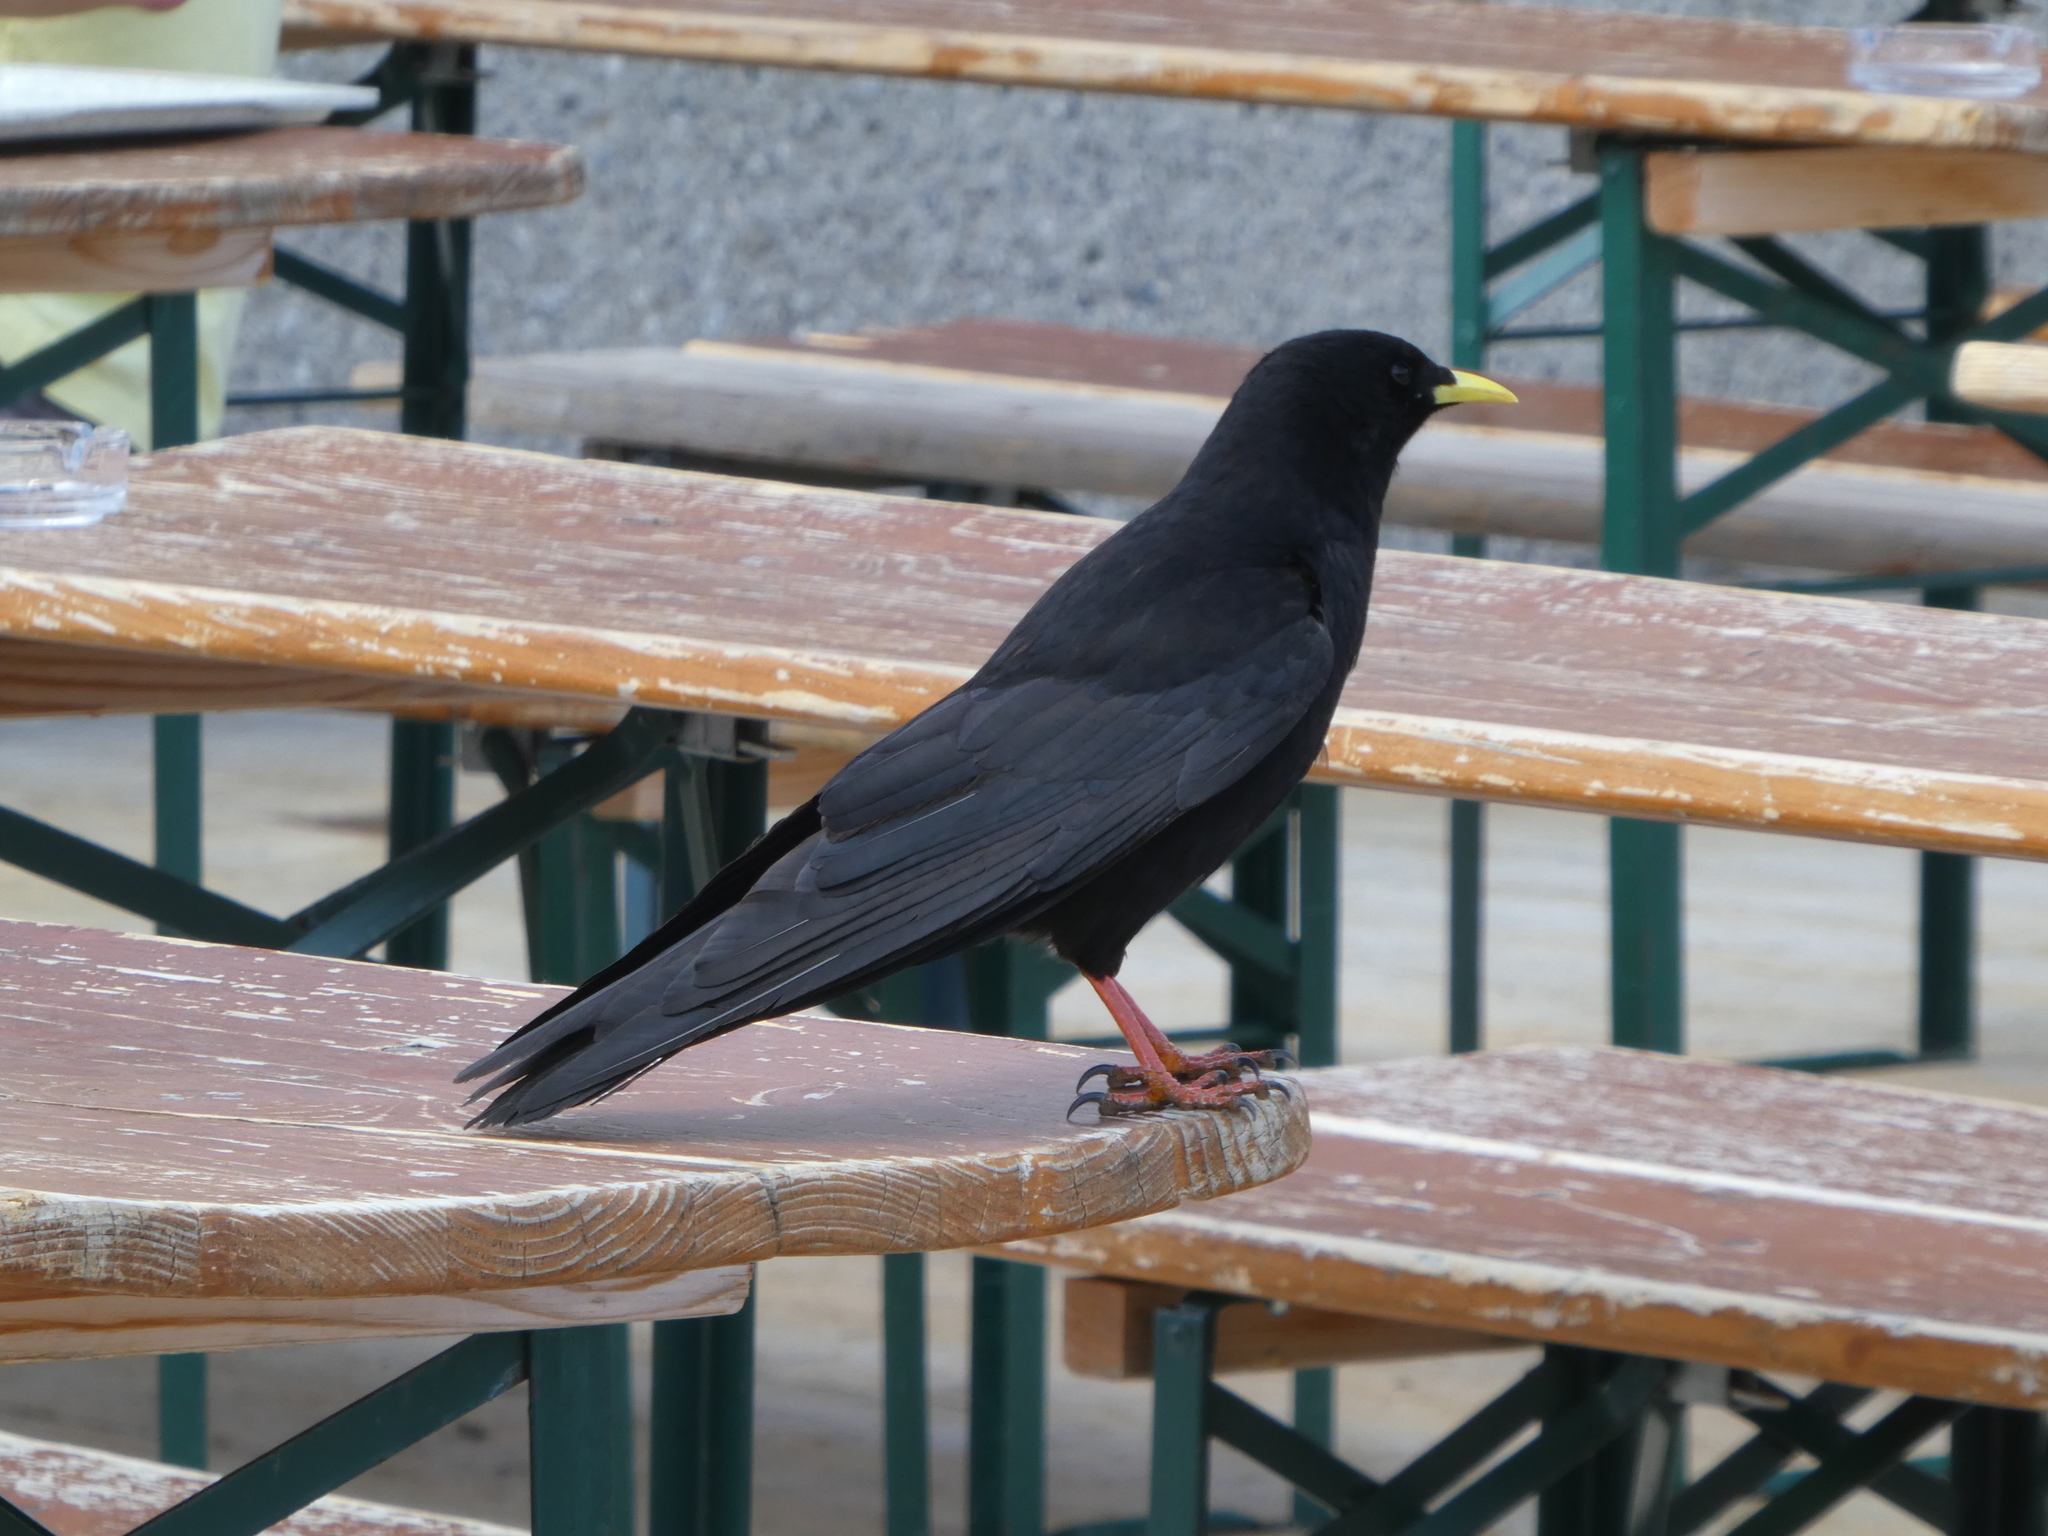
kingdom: Animalia
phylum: Chordata
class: Aves
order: Passeriformes
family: Corvidae
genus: Pyrrhocorax
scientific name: Pyrrhocorax graculus
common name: Alpine chough
